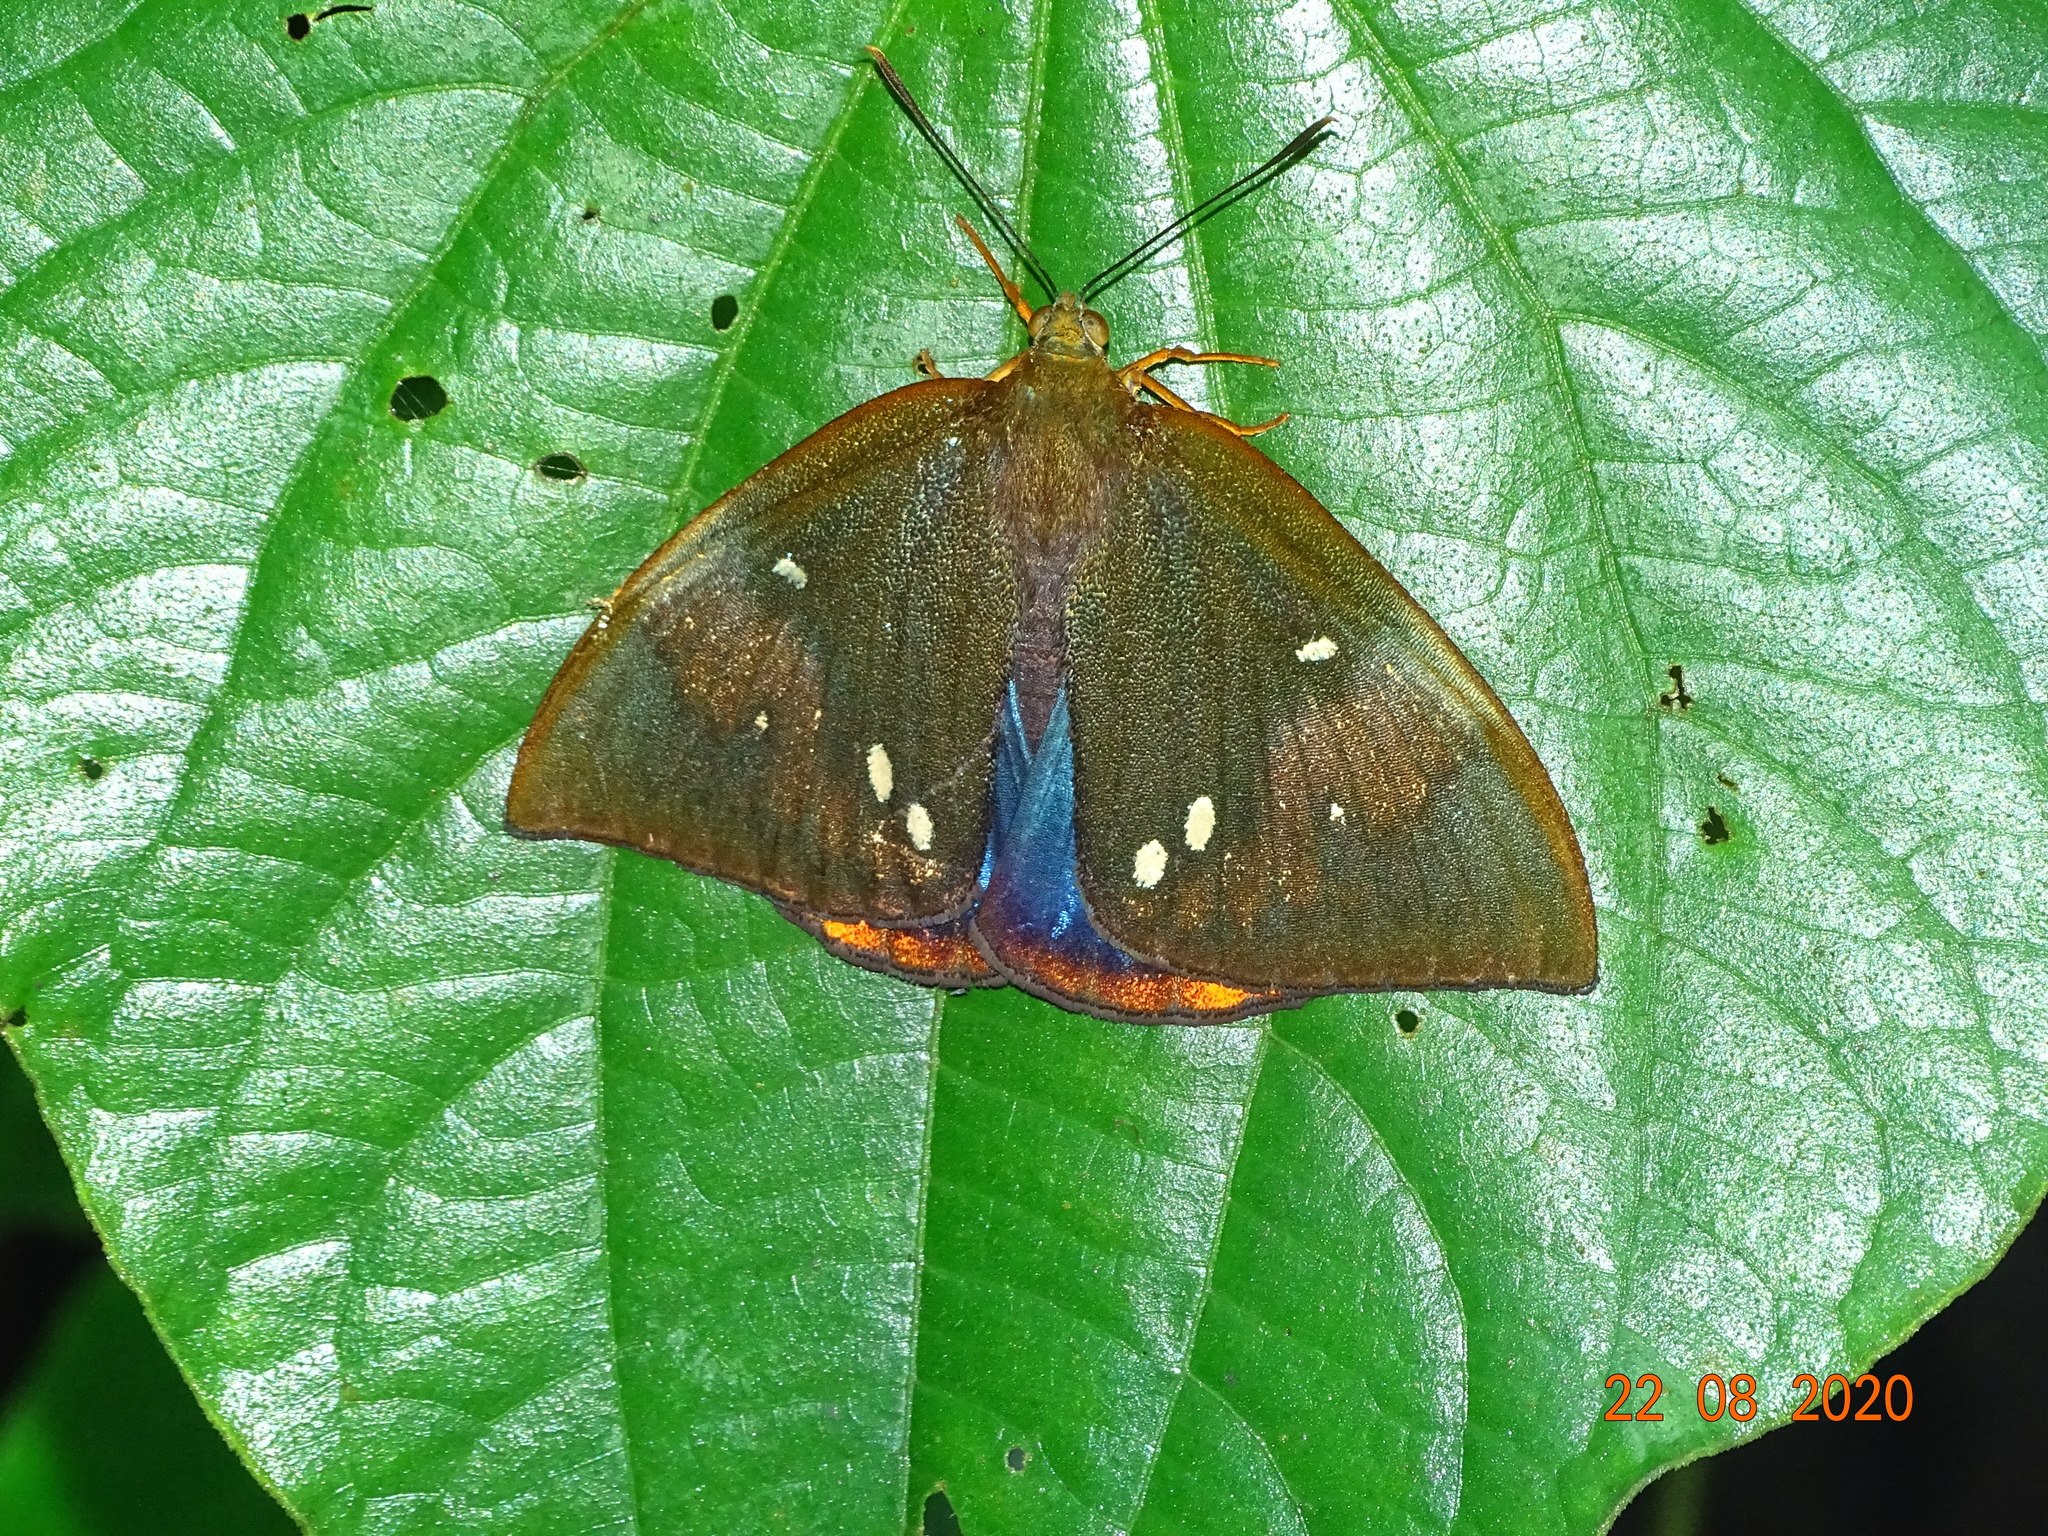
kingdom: Animalia
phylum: Arthropoda
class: Insecta
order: Lepidoptera
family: Castniidae
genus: Divana
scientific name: Divana diva
